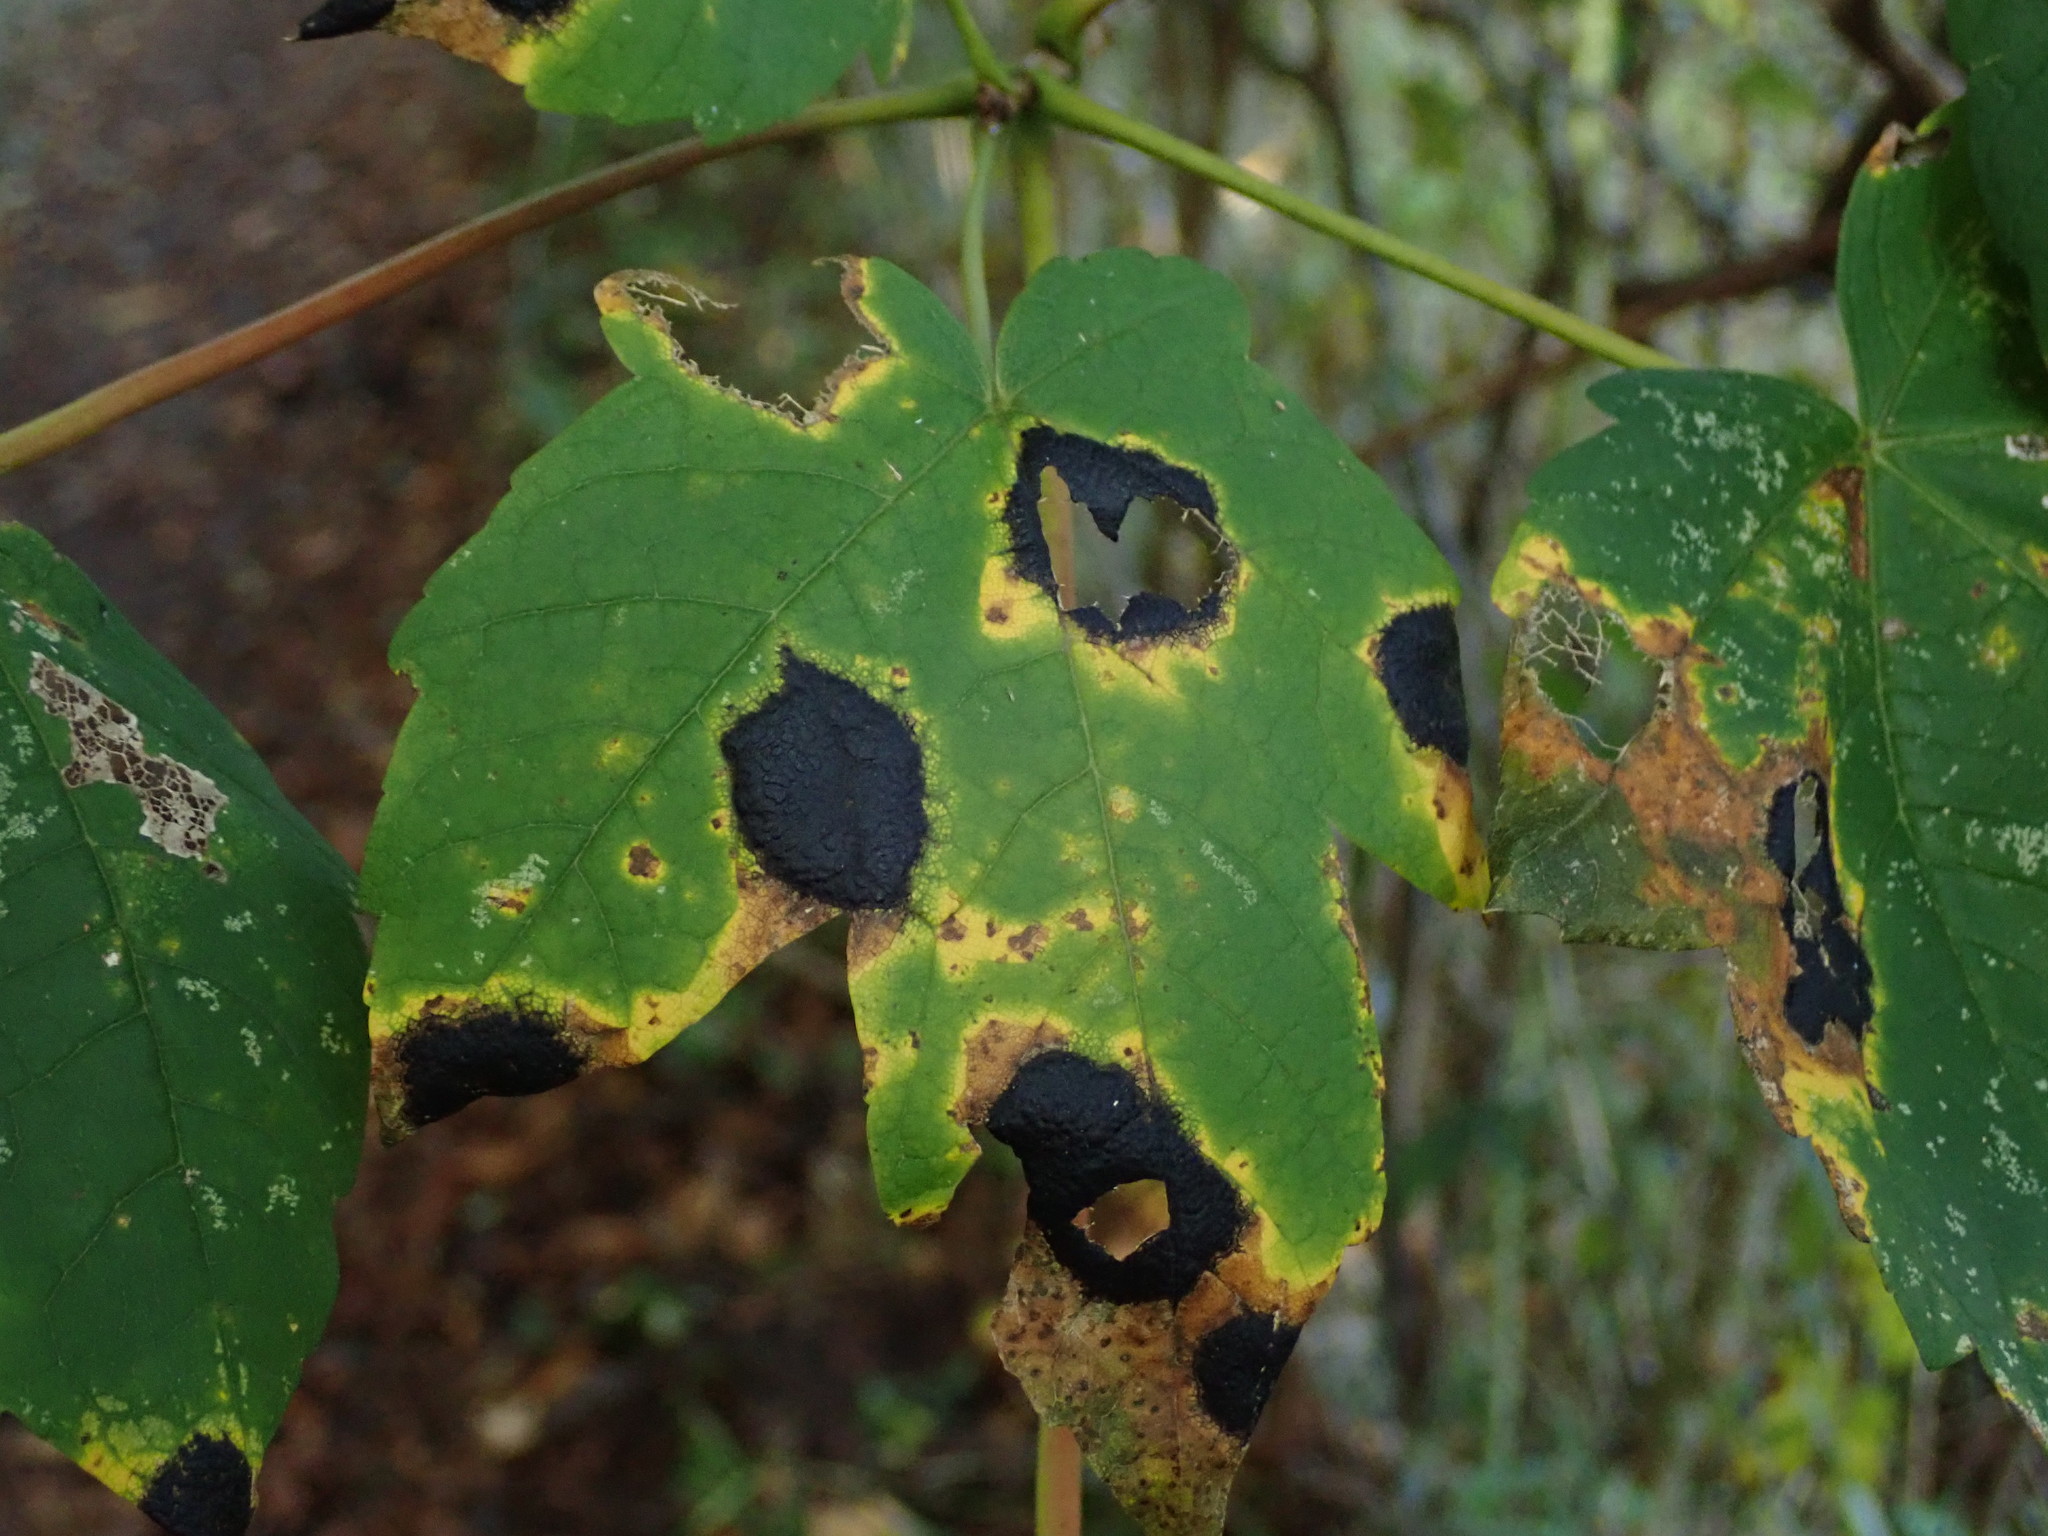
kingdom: Fungi
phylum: Ascomycota
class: Leotiomycetes
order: Rhytismatales
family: Rhytismataceae
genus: Rhytisma
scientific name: Rhytisma acerinum
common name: European tar spot
